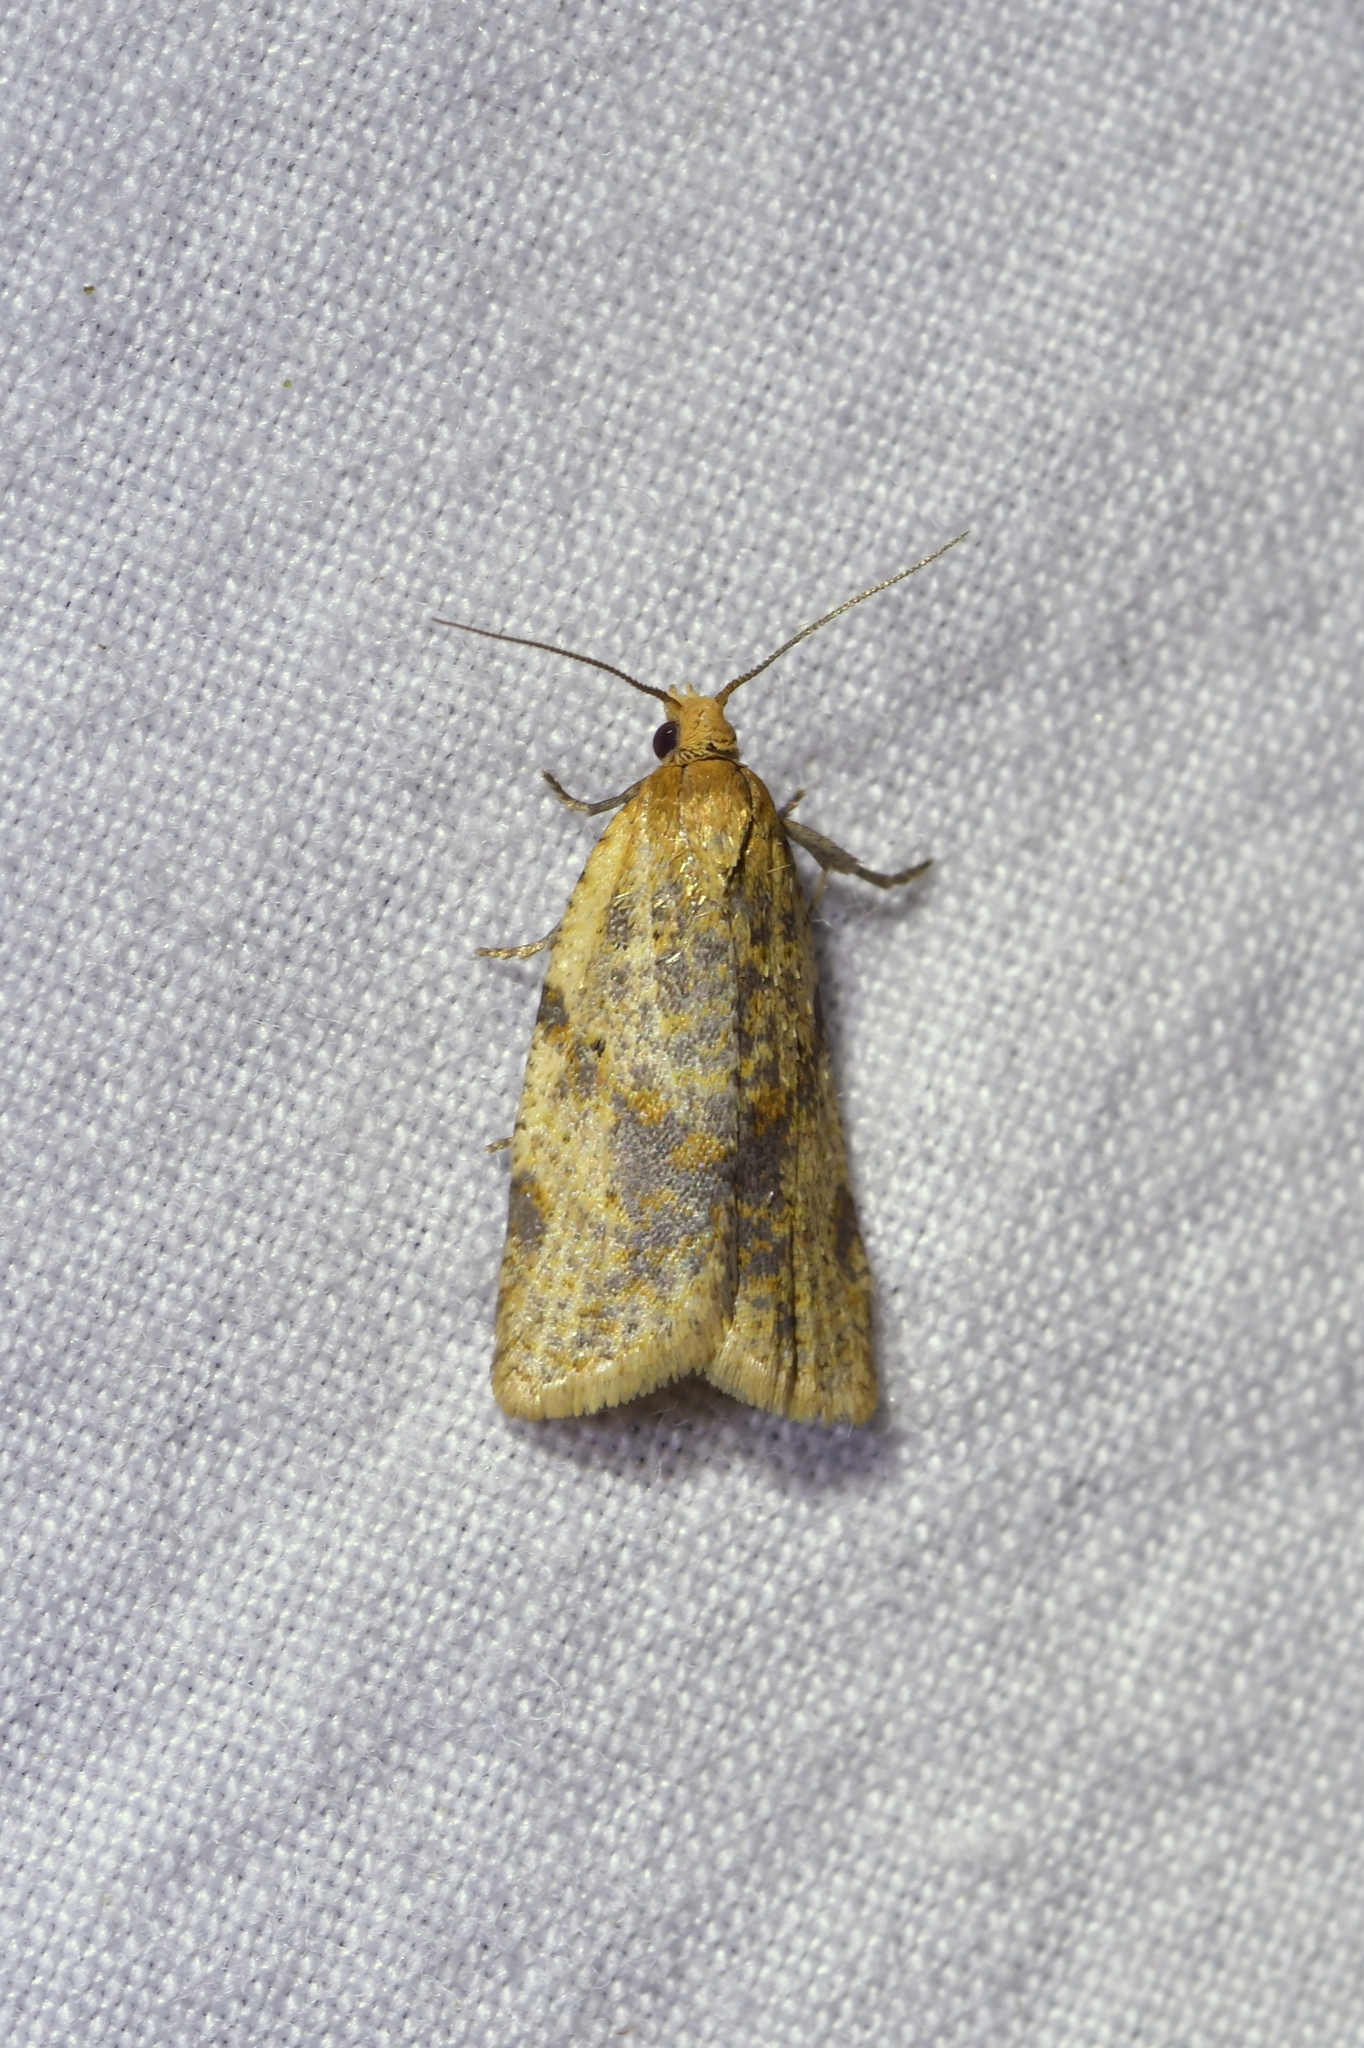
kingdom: Animalia
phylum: Arthropoda
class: Insecta
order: Lepidoptera
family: Tortricidae
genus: Clepsis
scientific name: Clepsis
